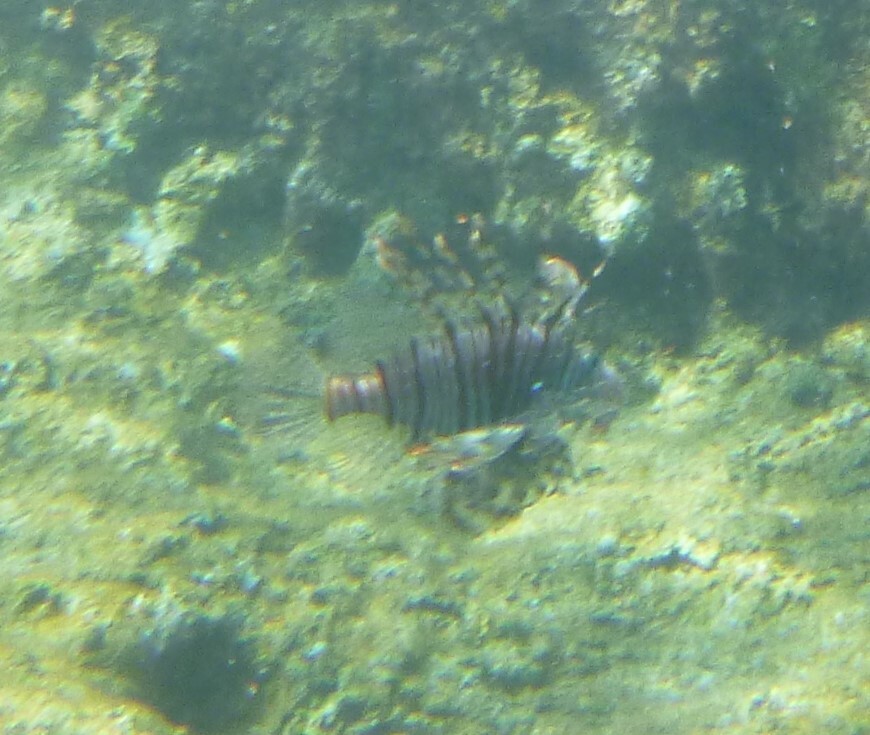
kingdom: Animalia
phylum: Chordata
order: Scorpaeniformes
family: Scorpaenidae
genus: Pterois
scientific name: Pterois miles
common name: Devil firefish
